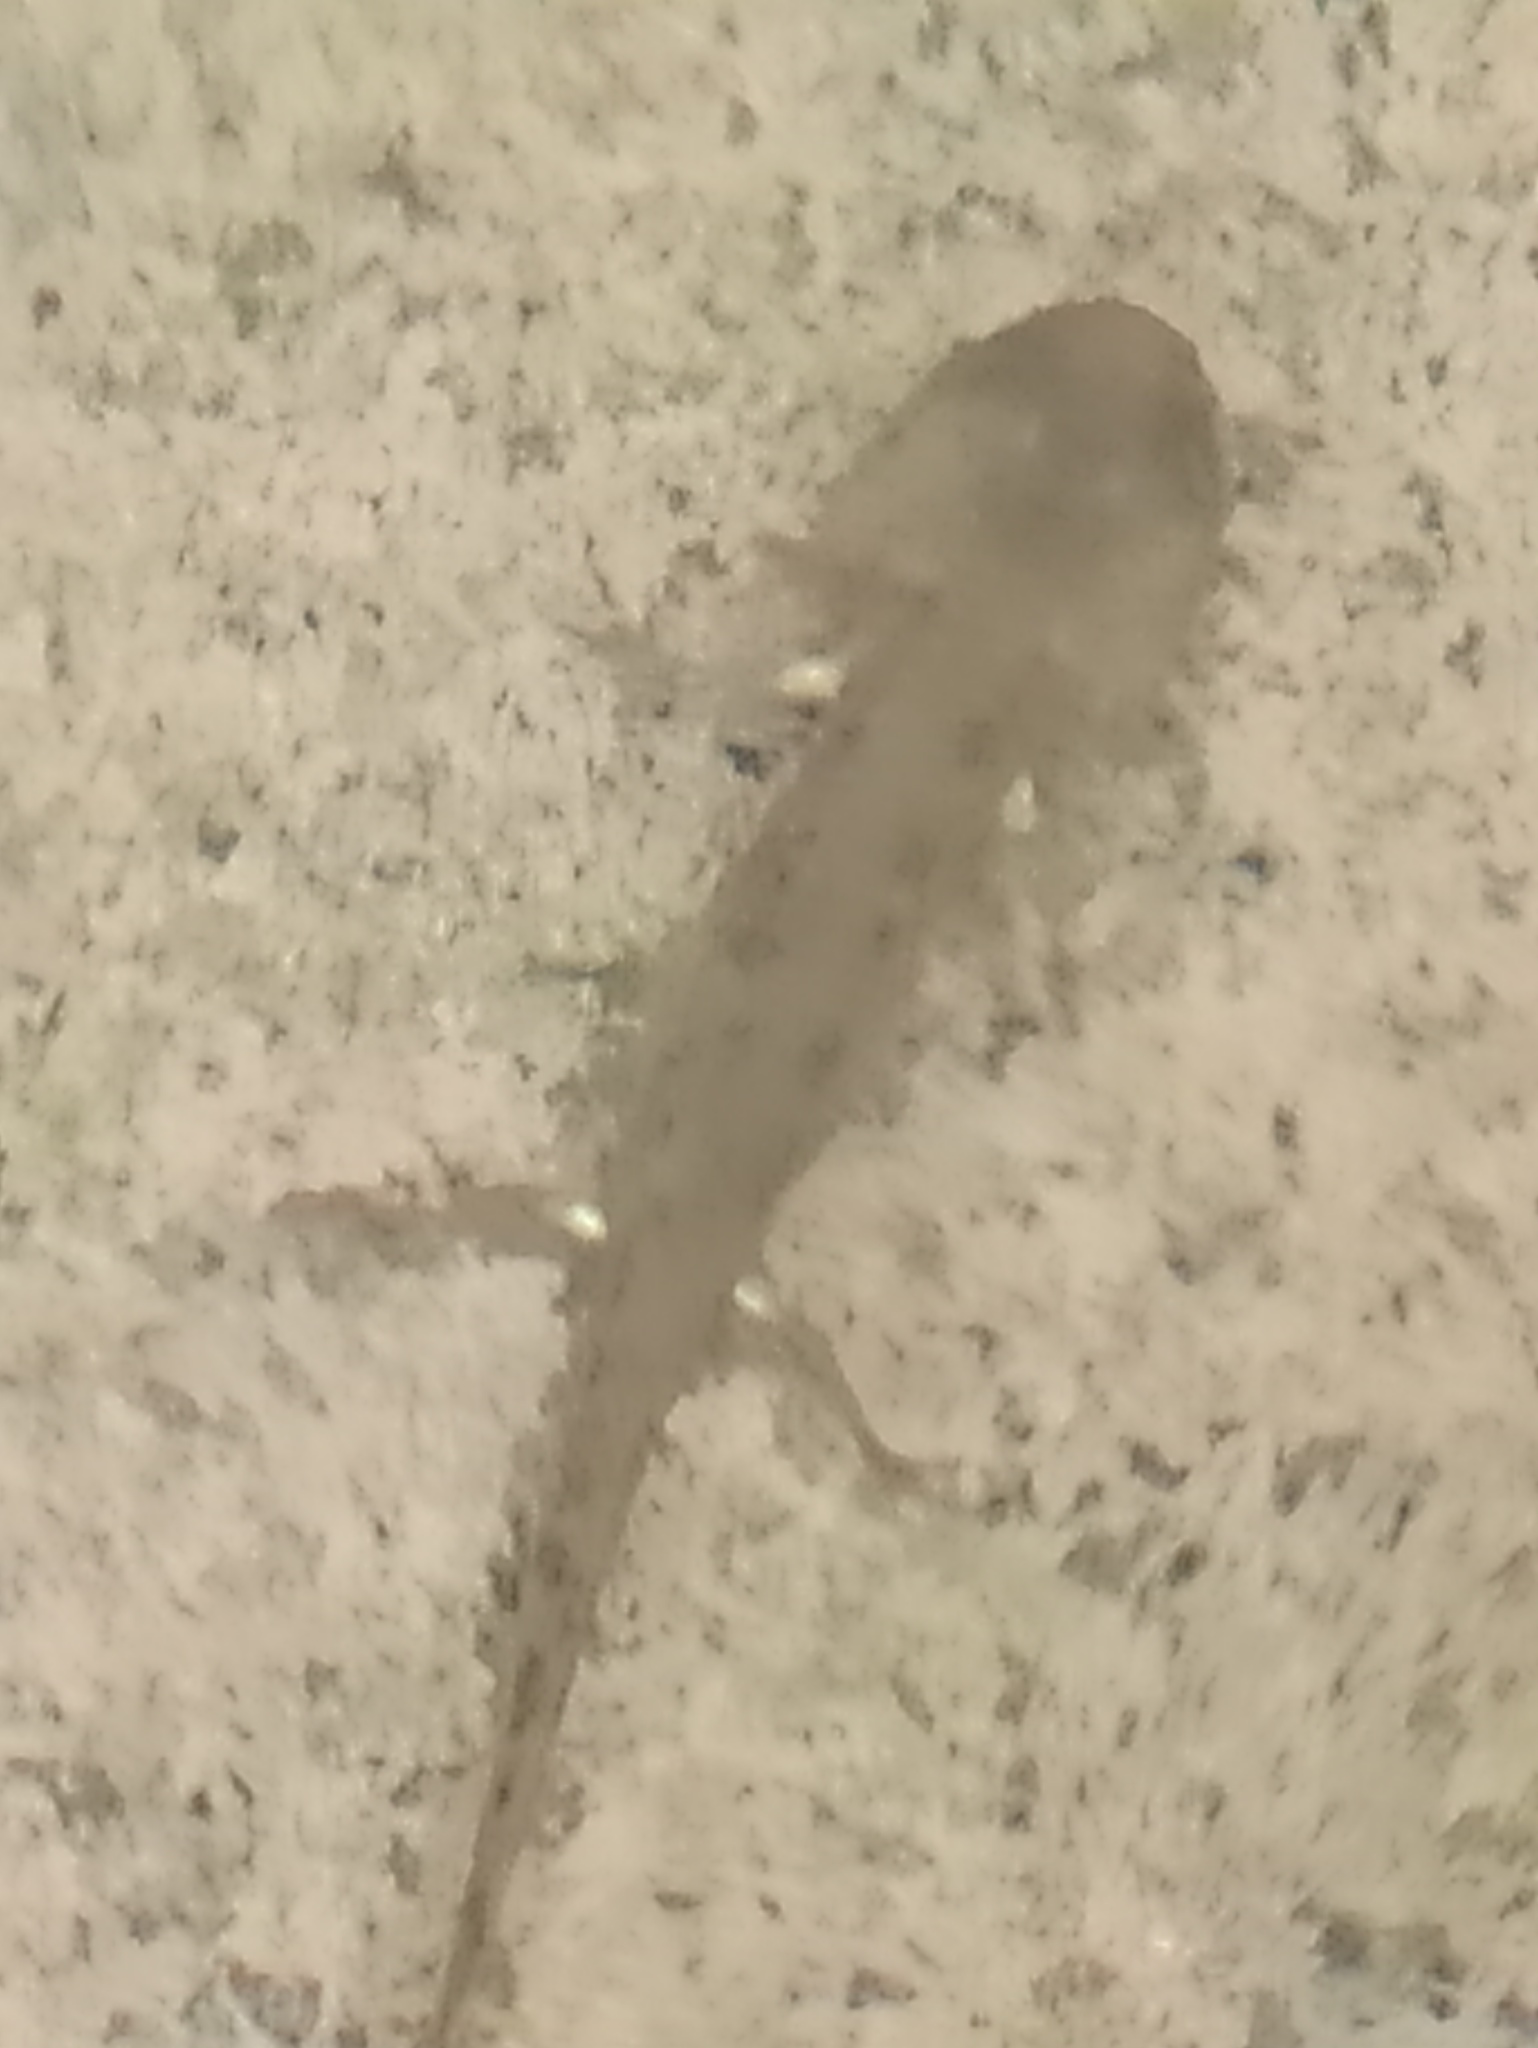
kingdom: Animalia
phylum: Chordata
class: Amphibia
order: Caudata
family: Salamandridae
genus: Salamandra
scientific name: Salamandra salamandra
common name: Fire salamander
